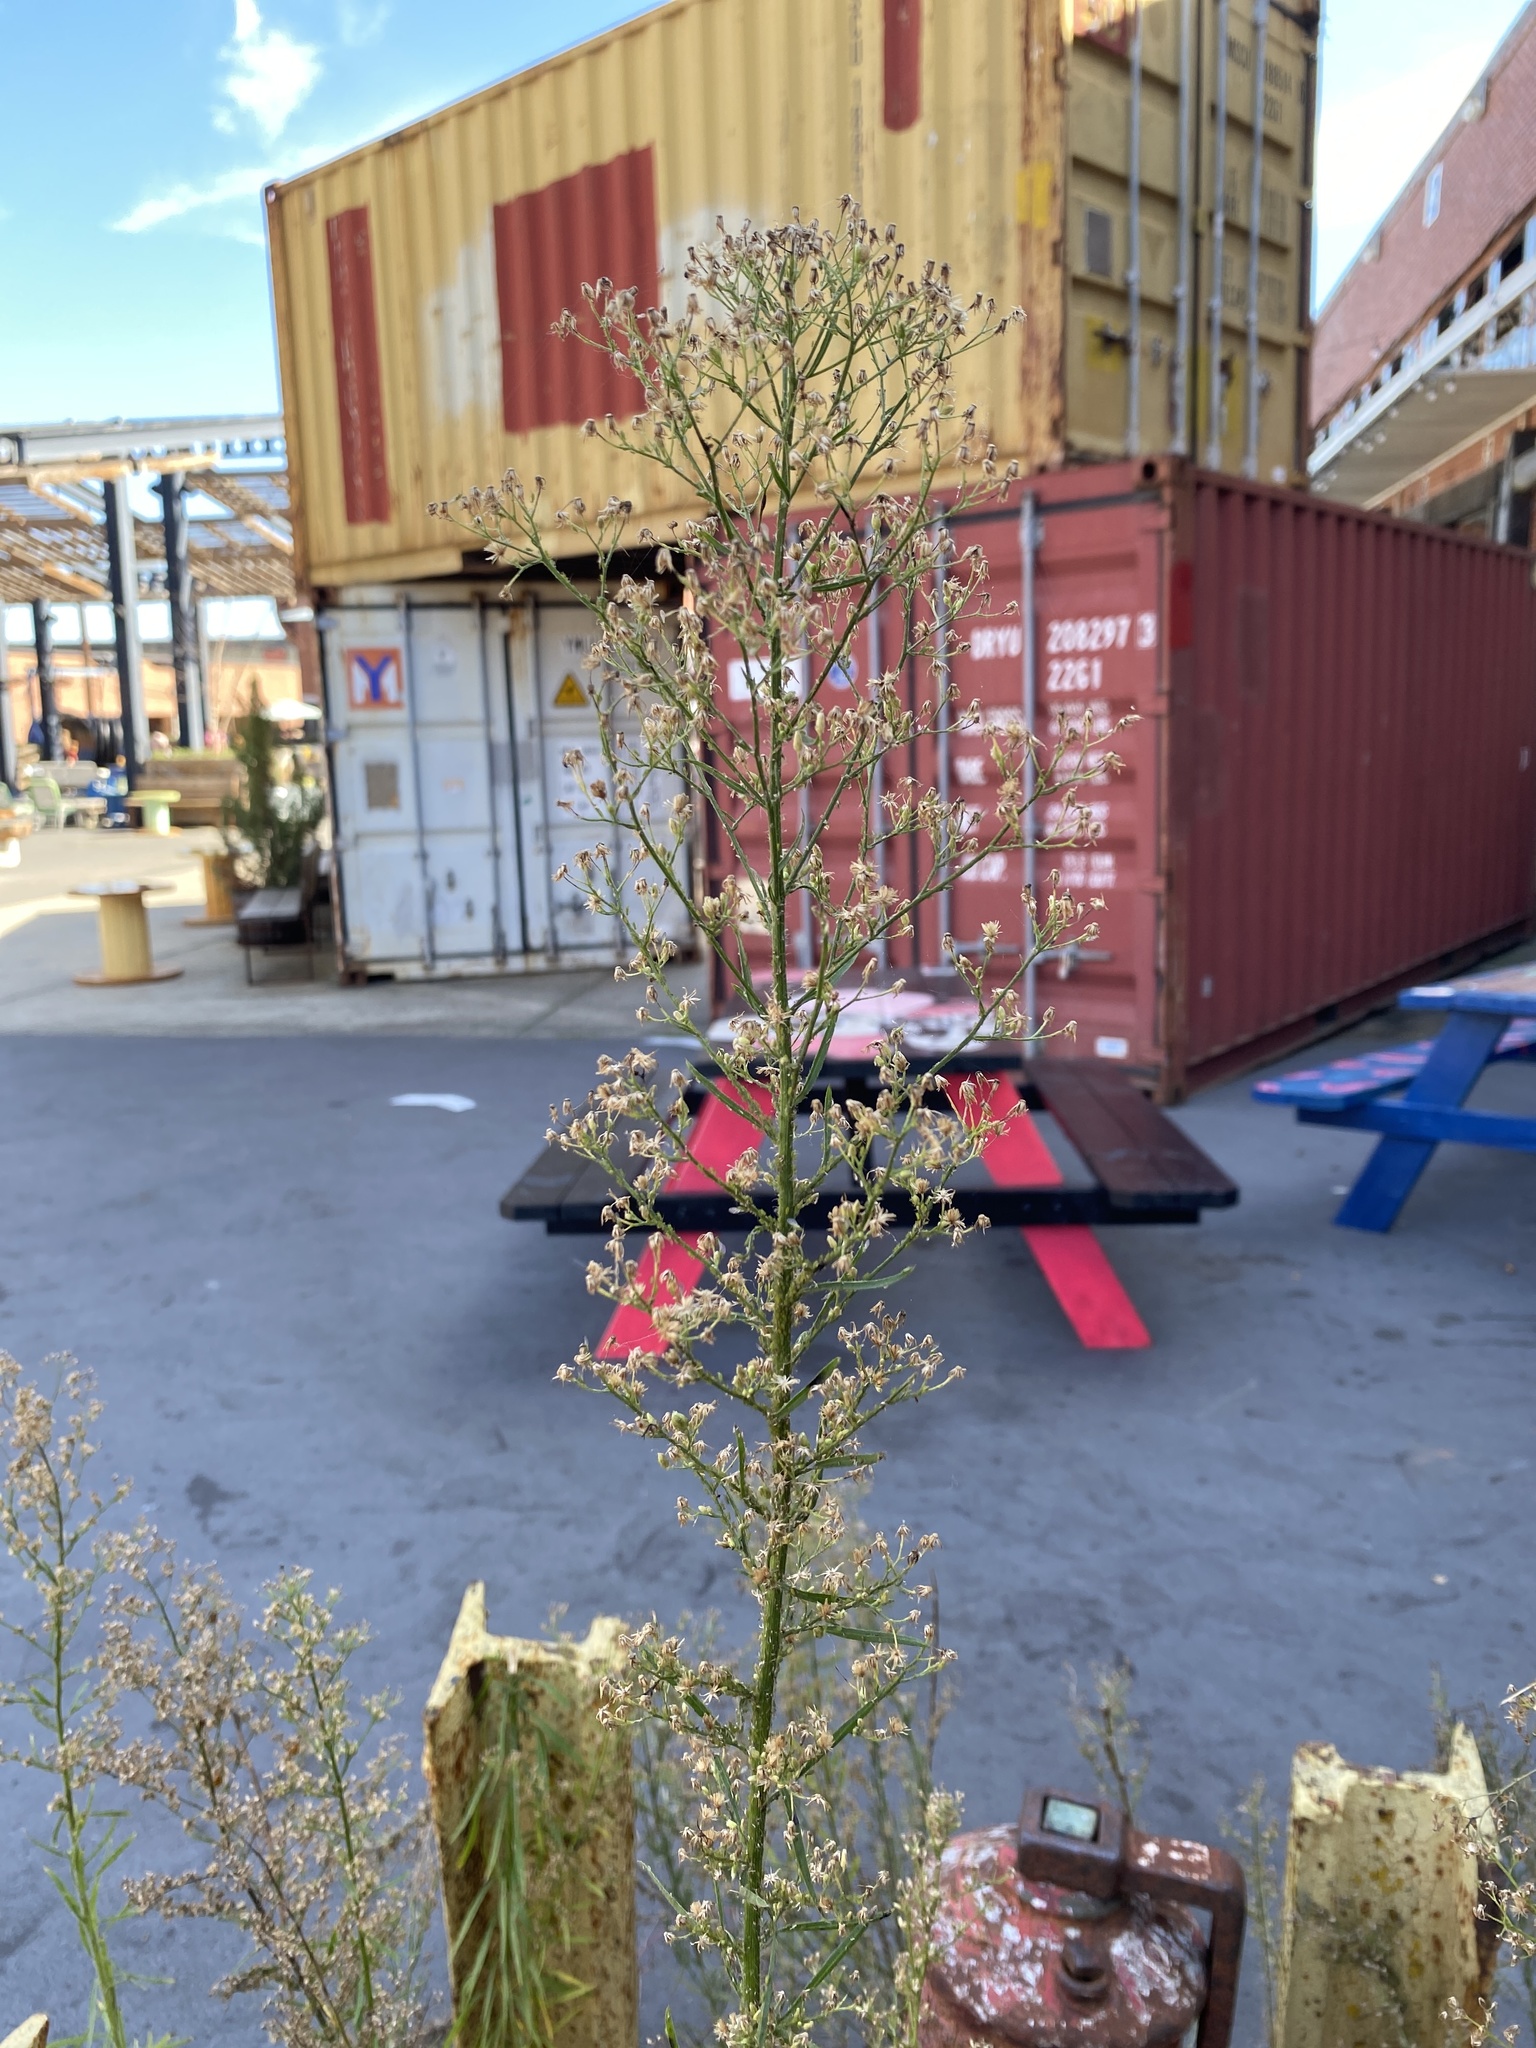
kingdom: Plantae
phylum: Tracheophyta
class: Magnoliopsida
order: Asterales
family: Asteraceae
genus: Erigeron
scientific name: Erigeron canadensis
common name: Canadian fleabane
